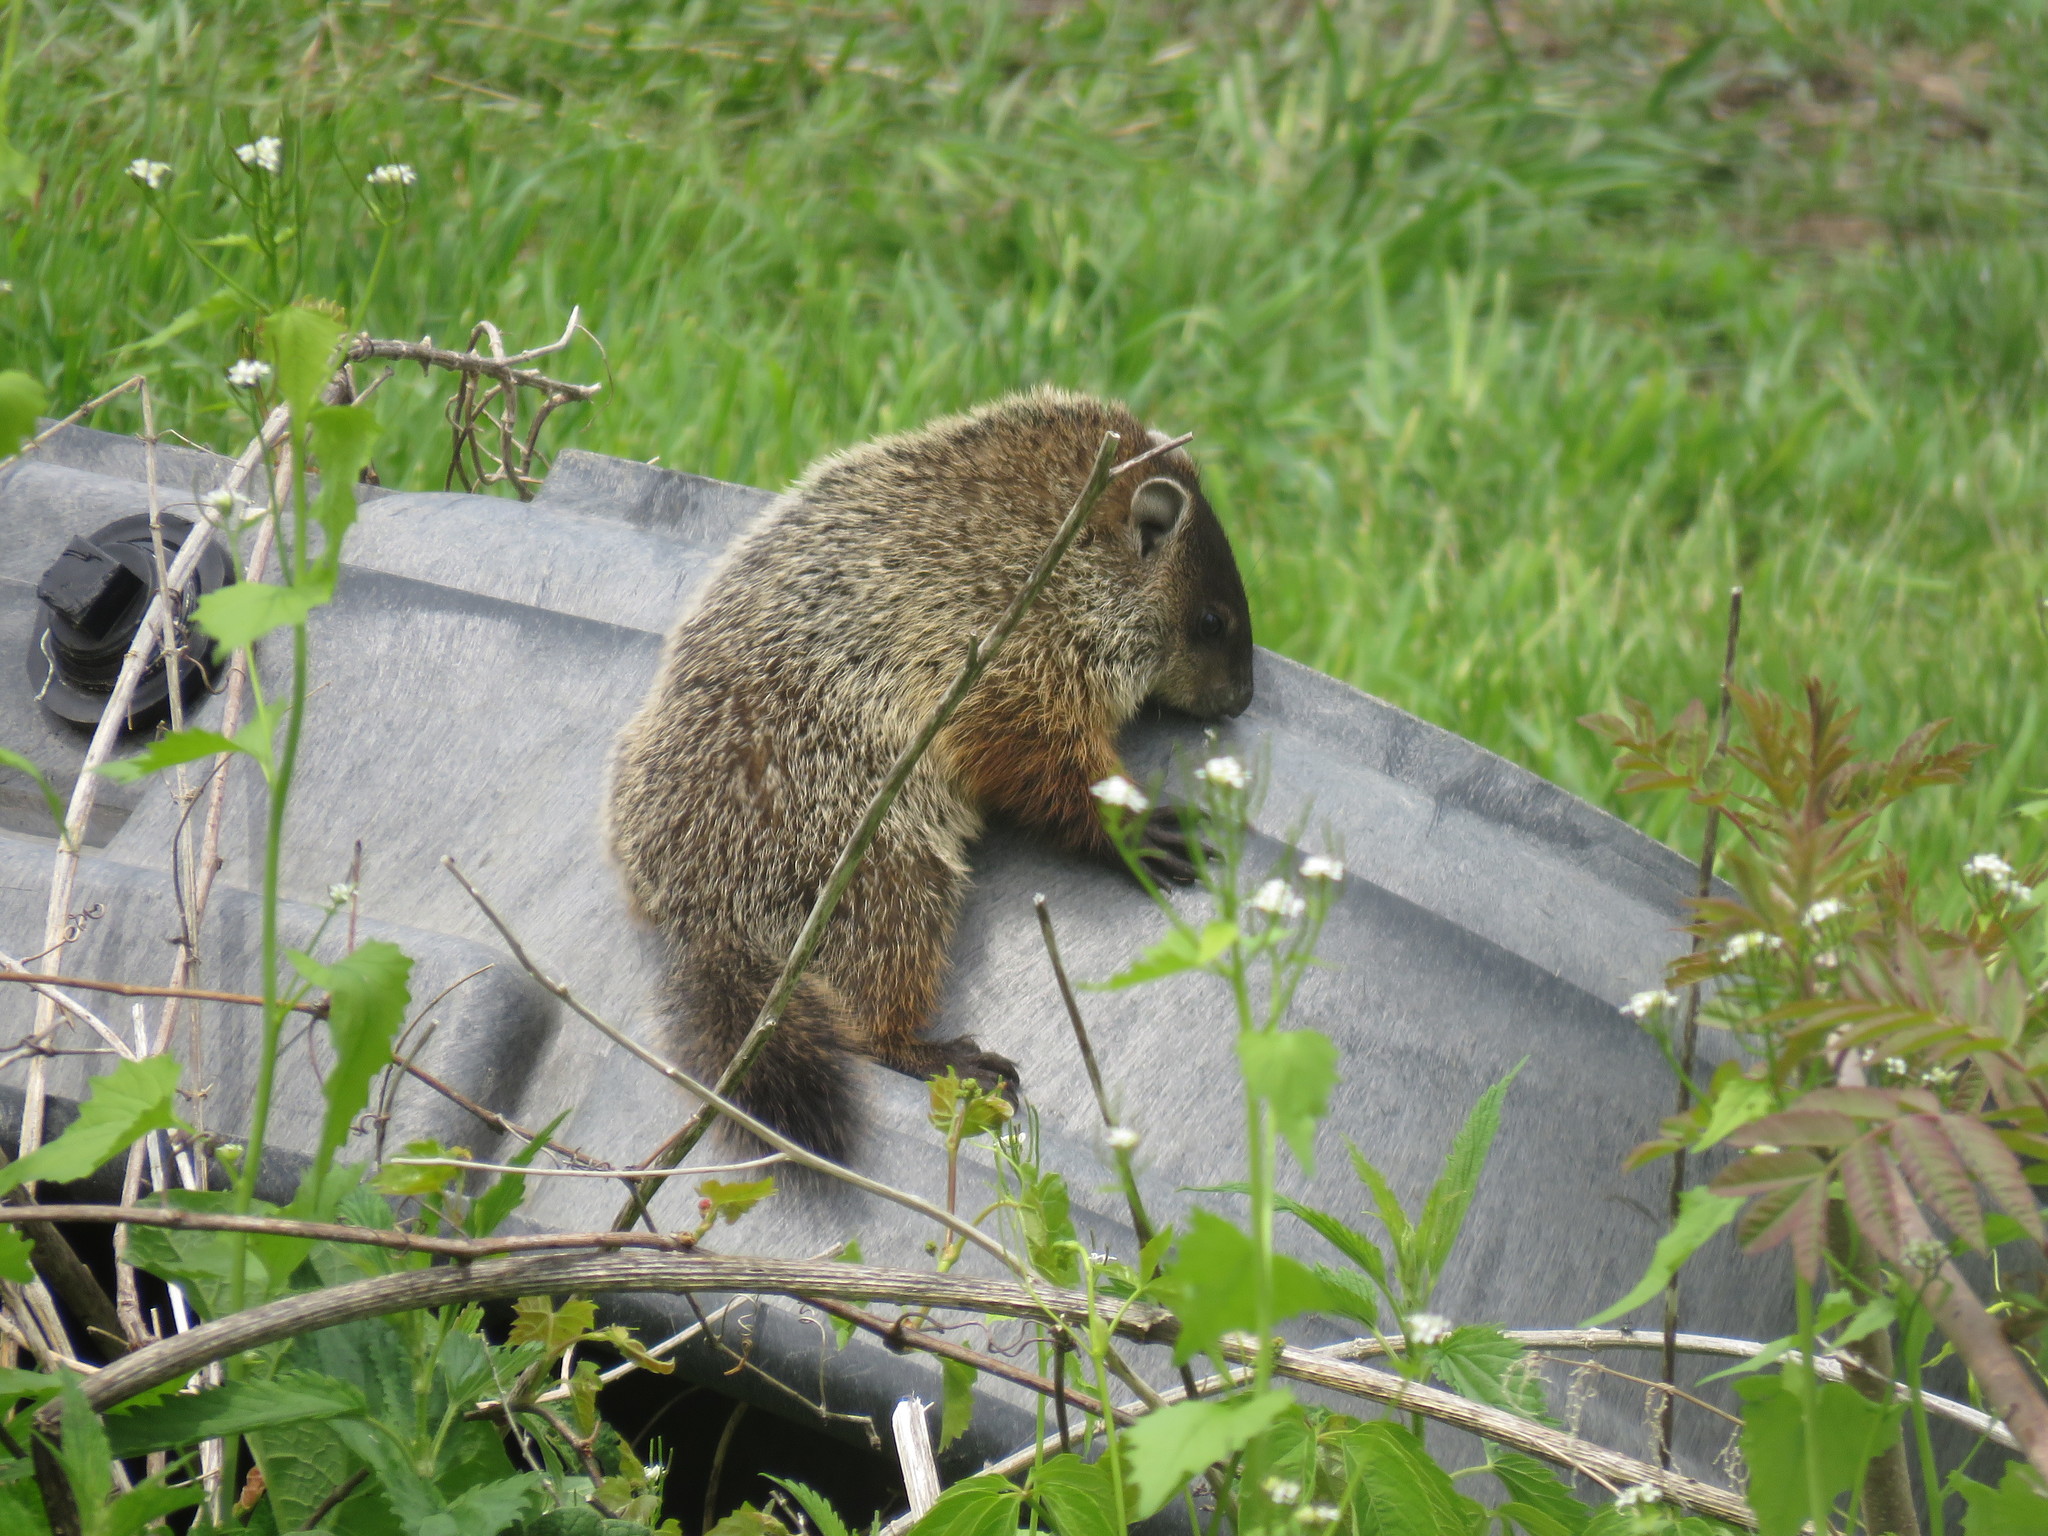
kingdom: Animalia
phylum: Chordata
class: Mammalia
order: Rodentia
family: Sciuridae
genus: Marmota
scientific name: Marmota monax
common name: Groundhog
